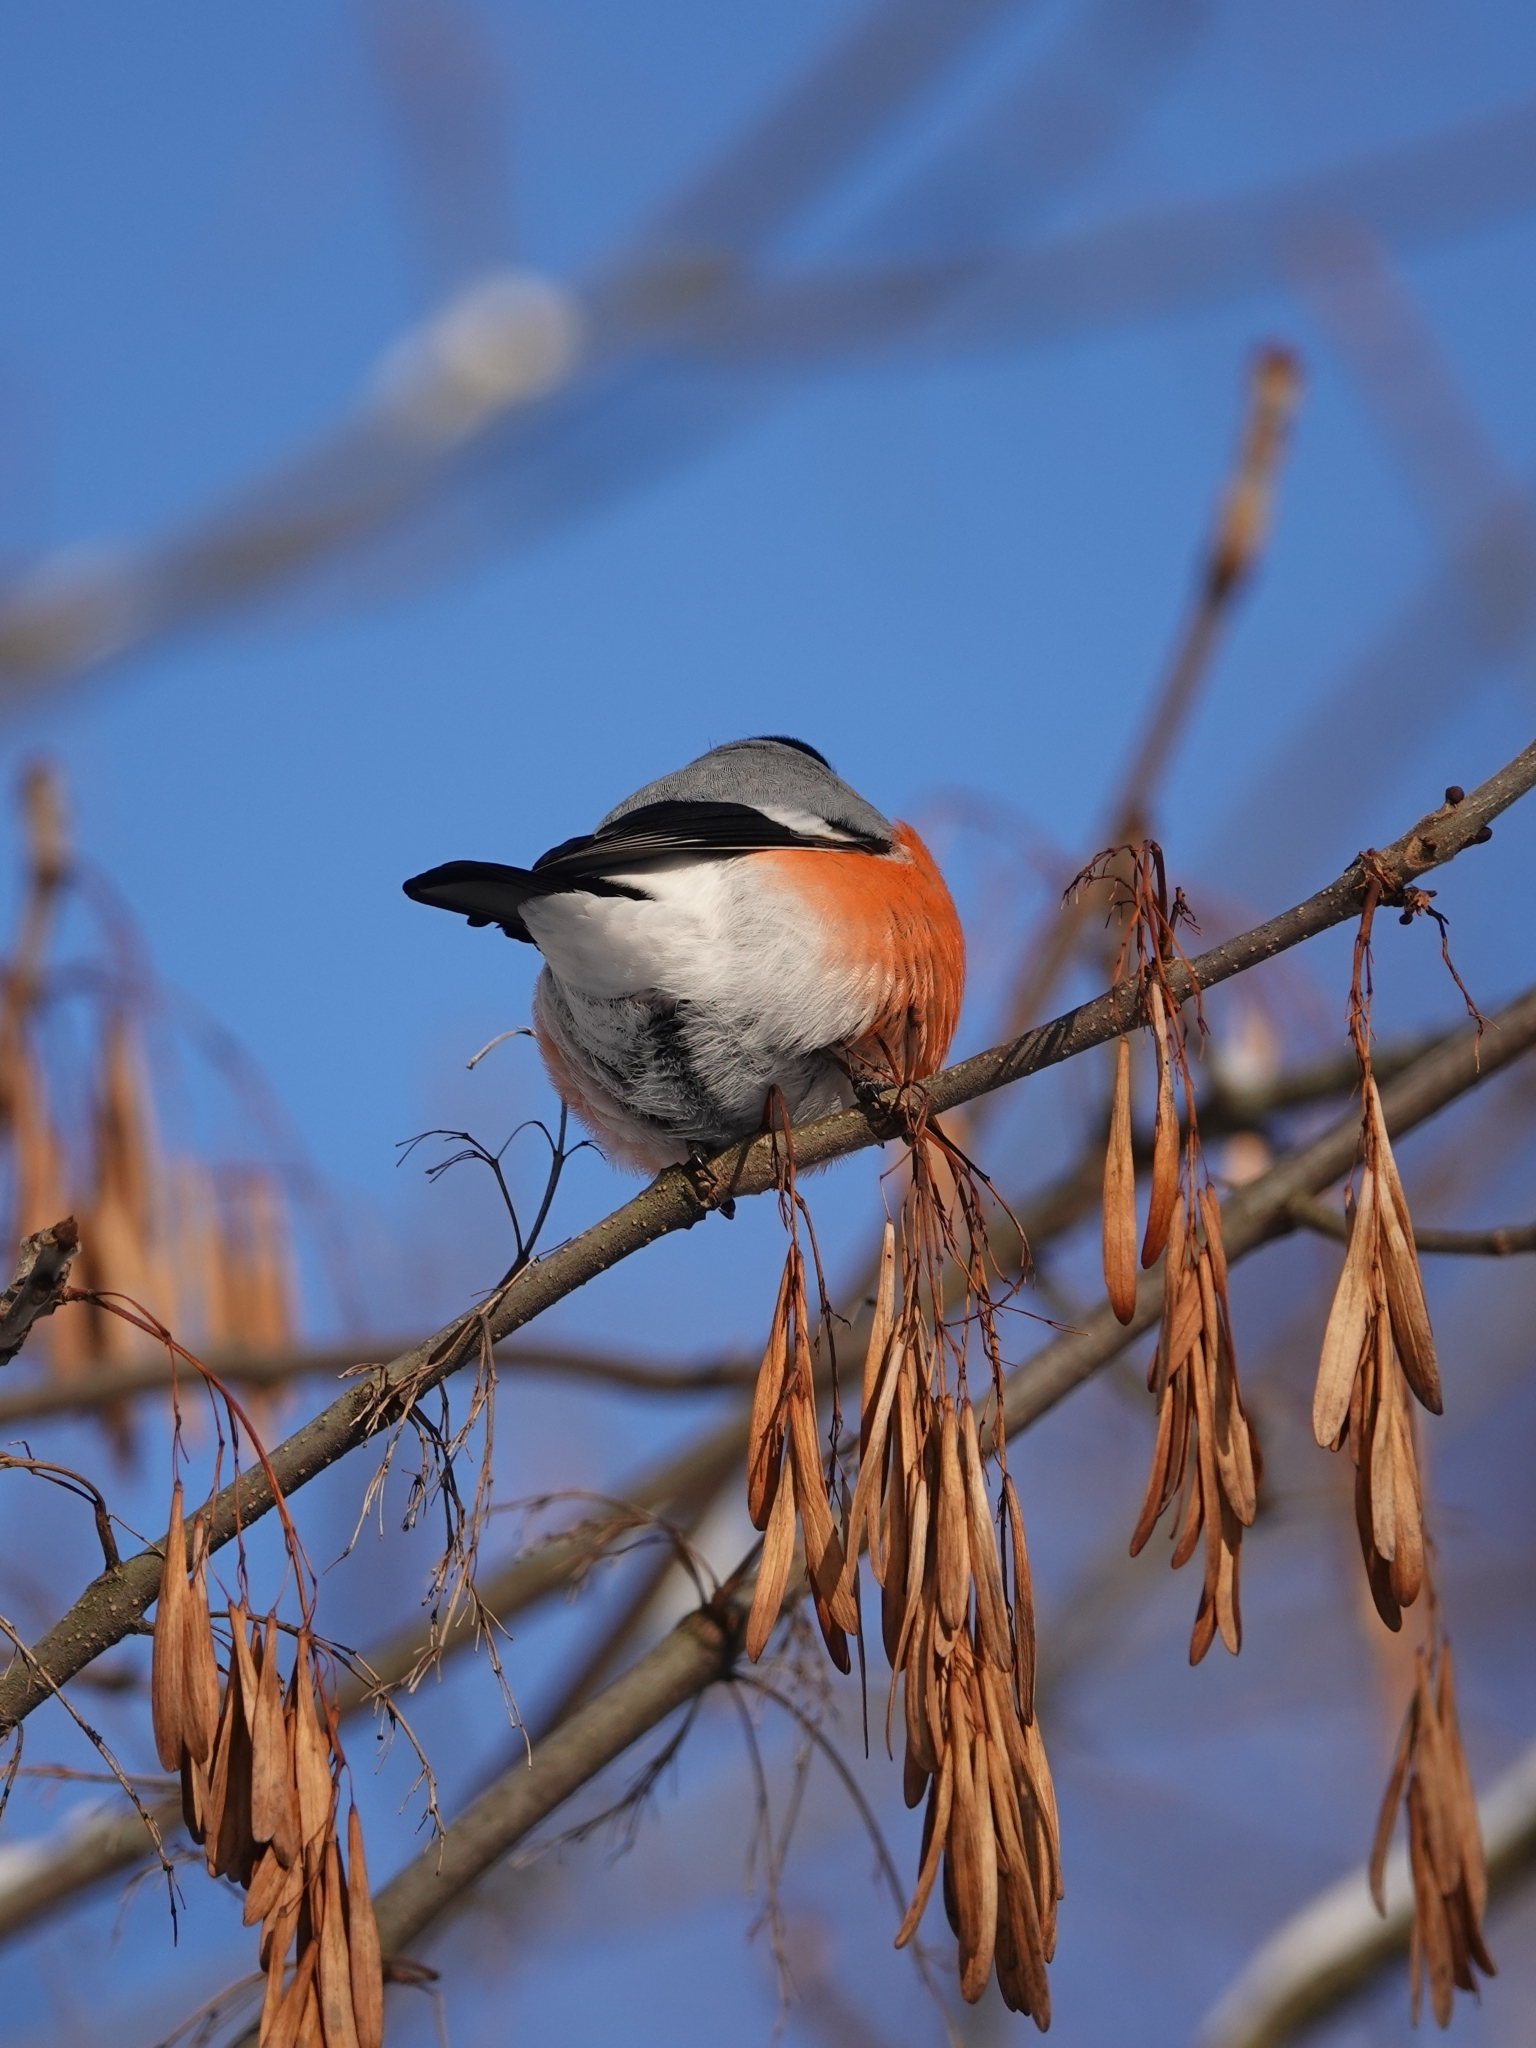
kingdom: Animalia
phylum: Chordata
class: Aves
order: Passeriformes
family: Fringillidae
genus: Pyrrhula
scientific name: Pyrrhula pyrrhula
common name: Eurasian bullfinch
